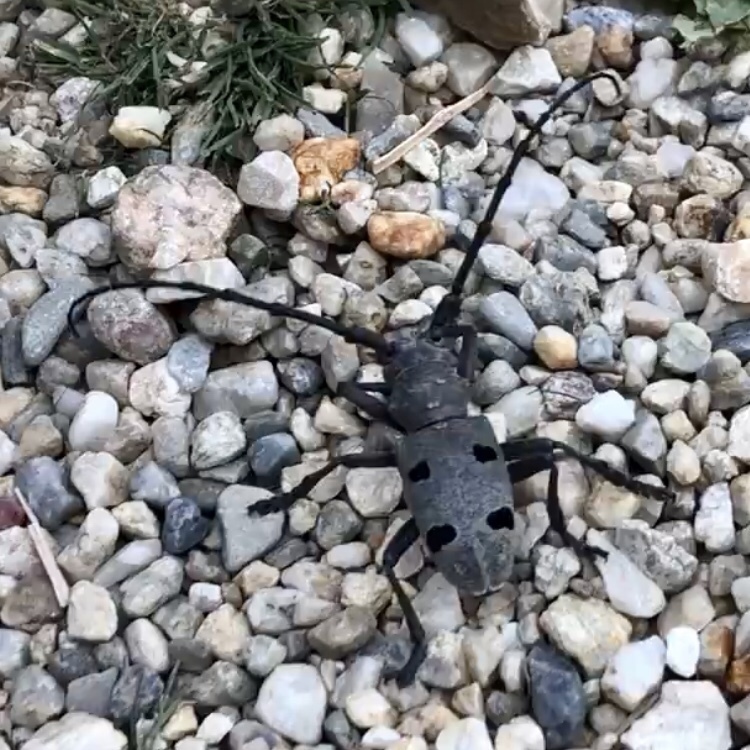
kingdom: Animalia
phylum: Arthropoda
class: Insecta
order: Coleoptera
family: Cerambycidae
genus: Morimus
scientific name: Morimus funereus
